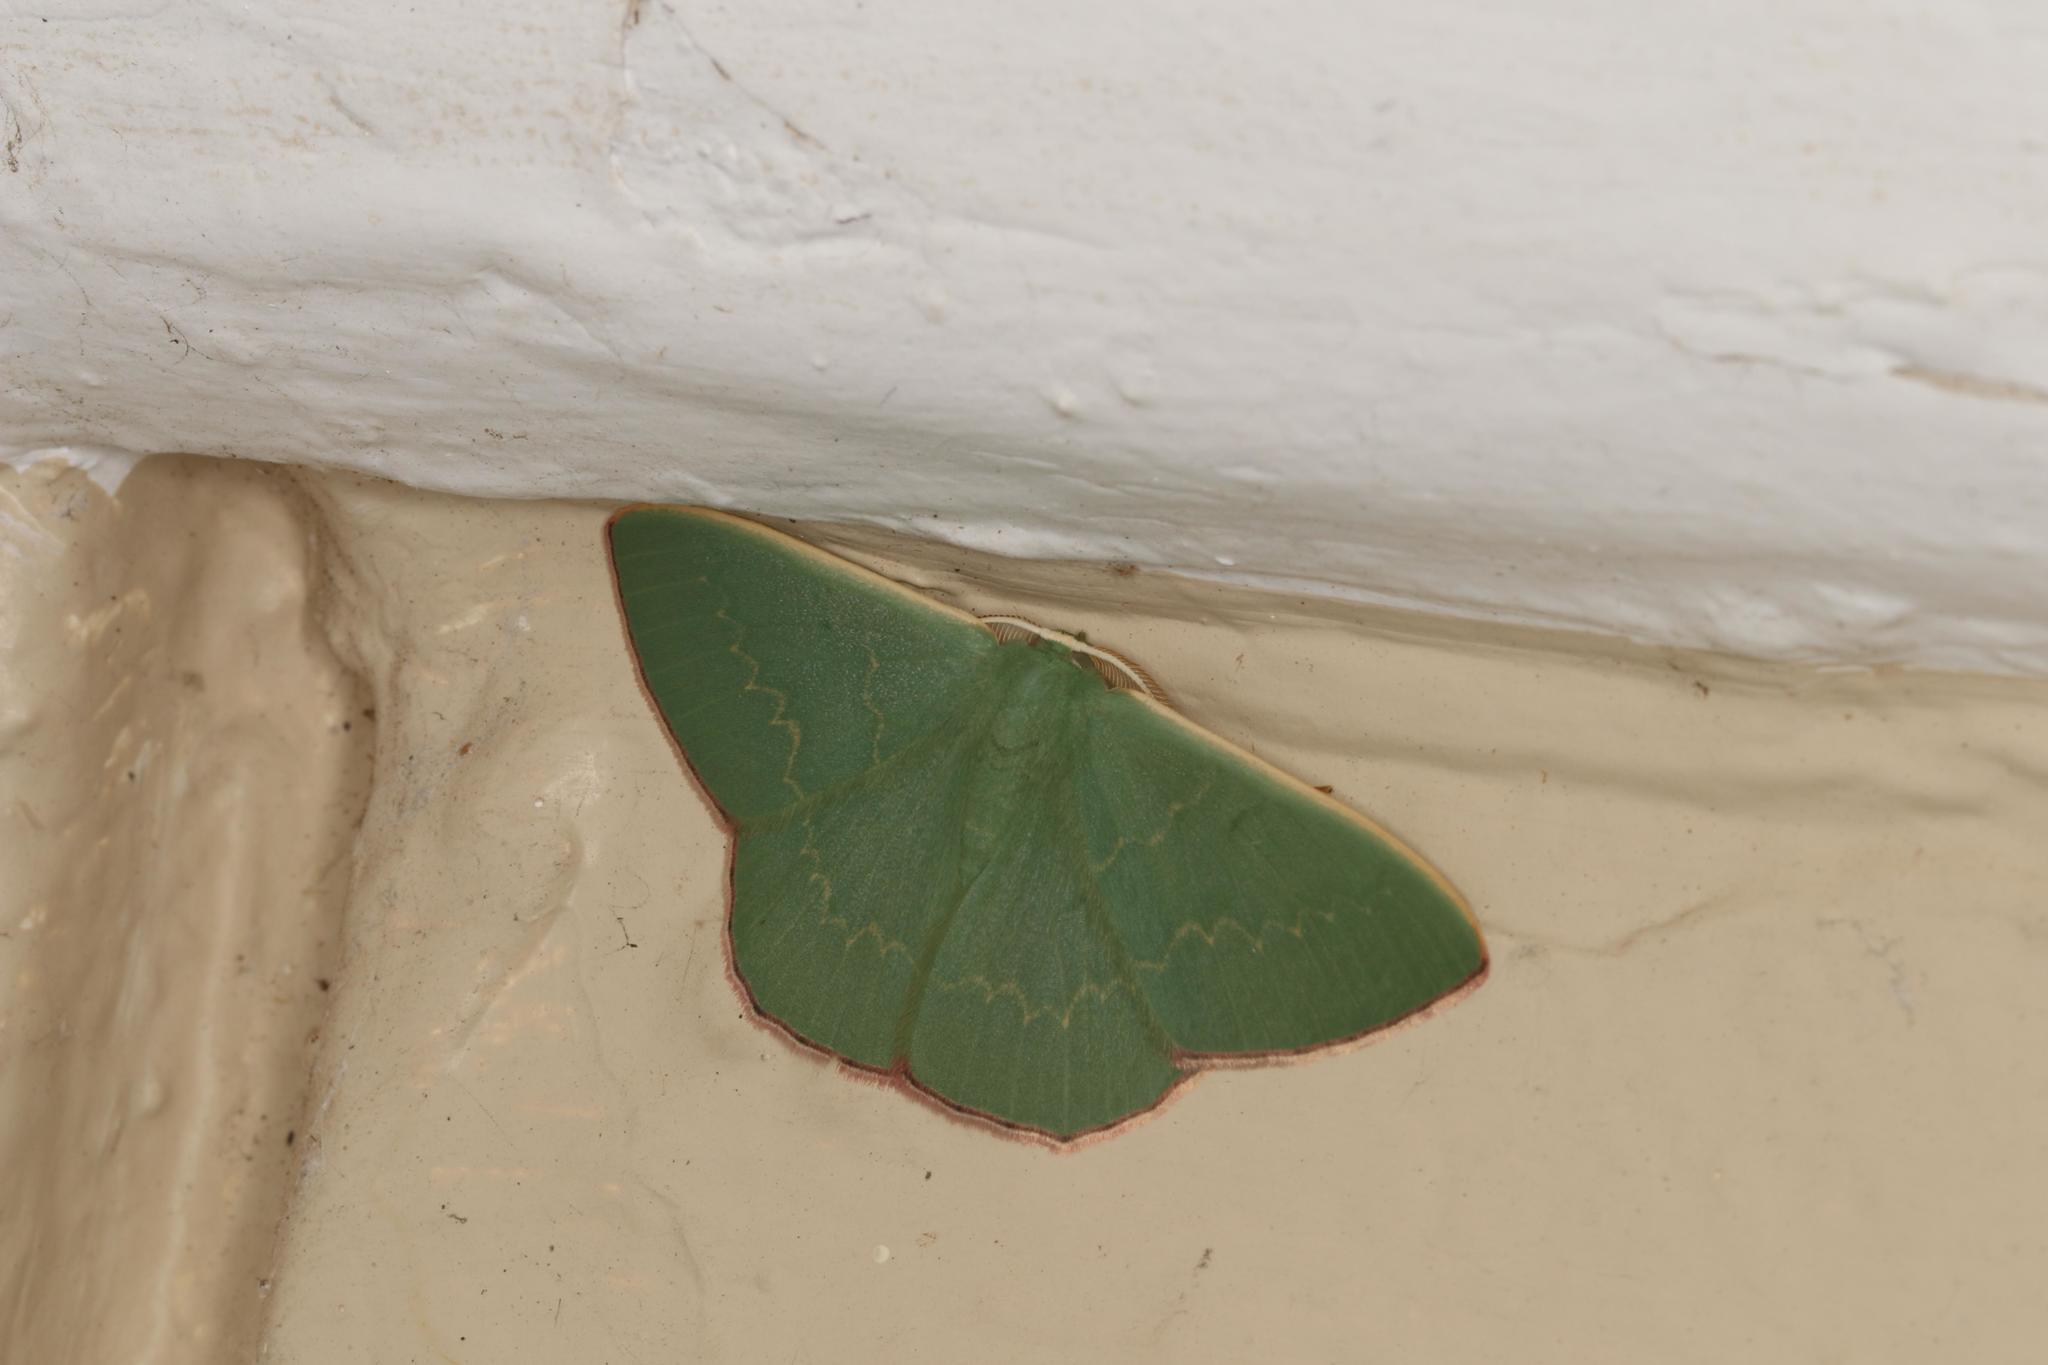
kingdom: Animalia
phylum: Arthropoda
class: Insecta
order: Lepidoptera
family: Geometridae
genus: Prasinocyma
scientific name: Prasinocyma semicrocea
